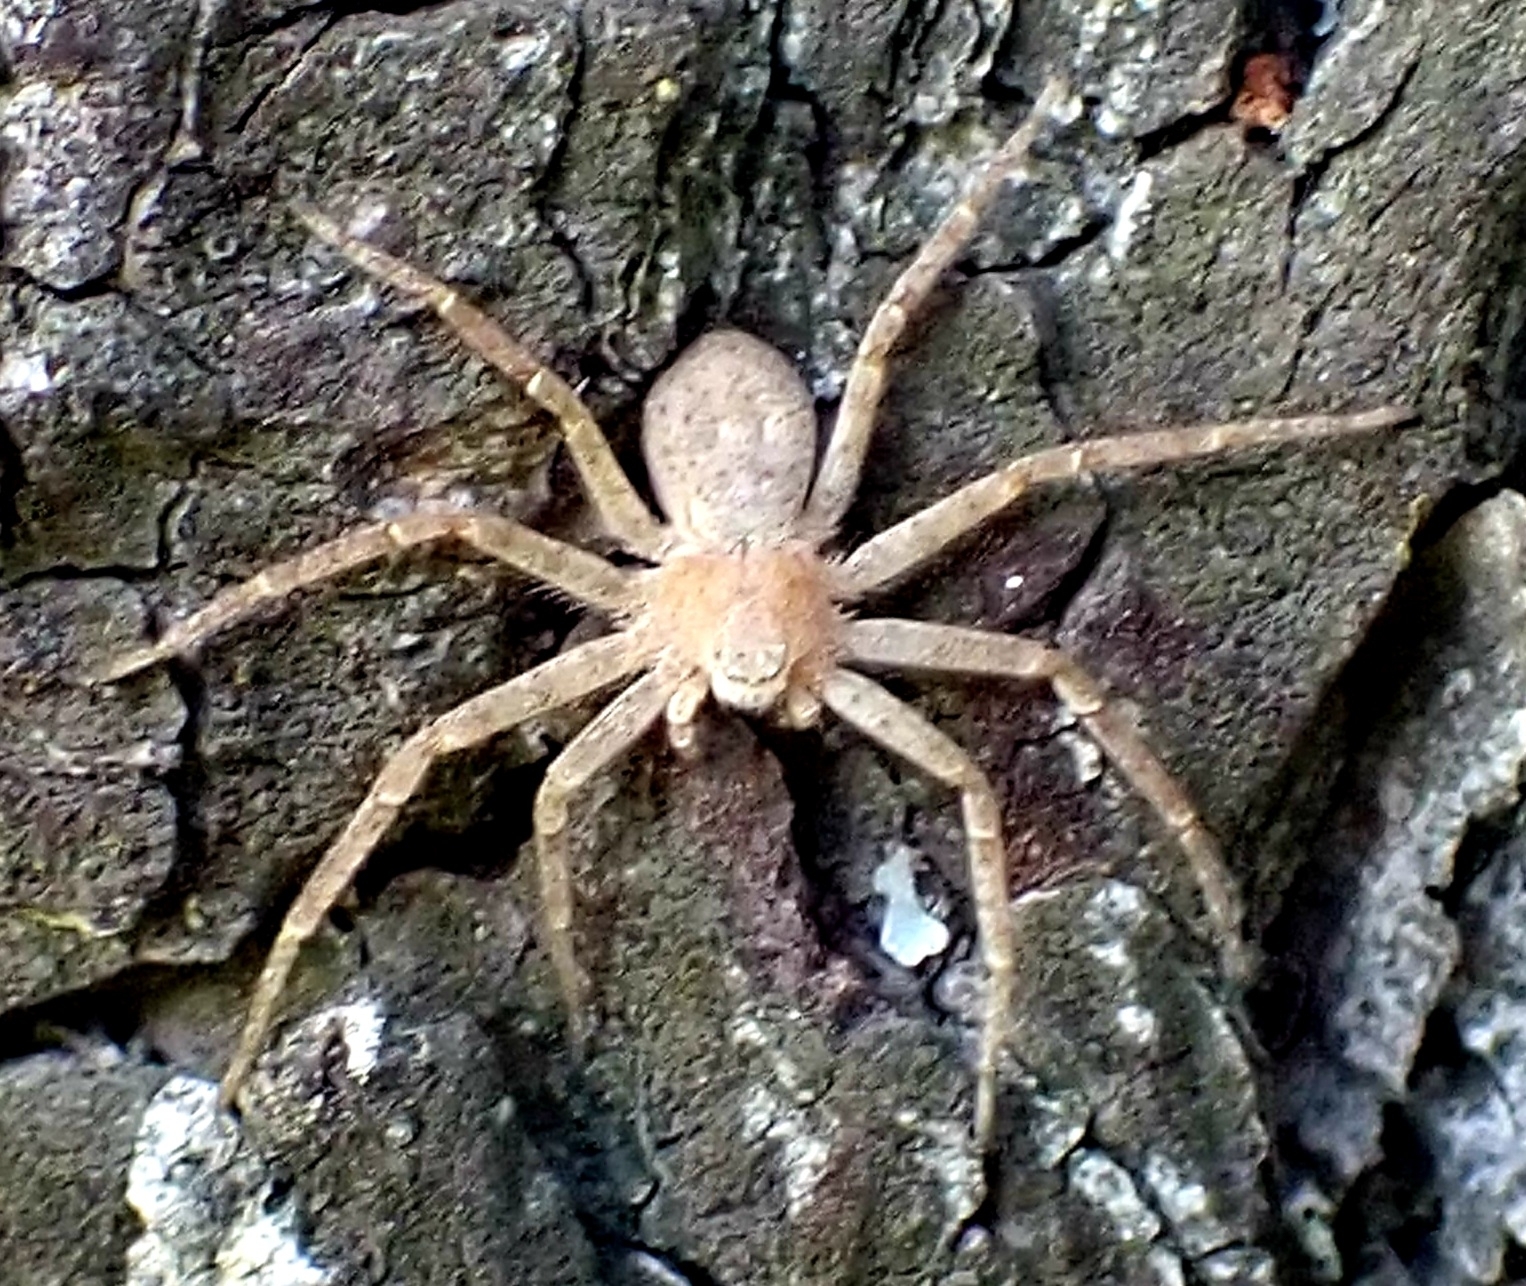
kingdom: Animalia
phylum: Arthropoda
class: Arachnida
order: Araneae
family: Philodromidae
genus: Philodromus
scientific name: Philodromus fuscomarginatus
